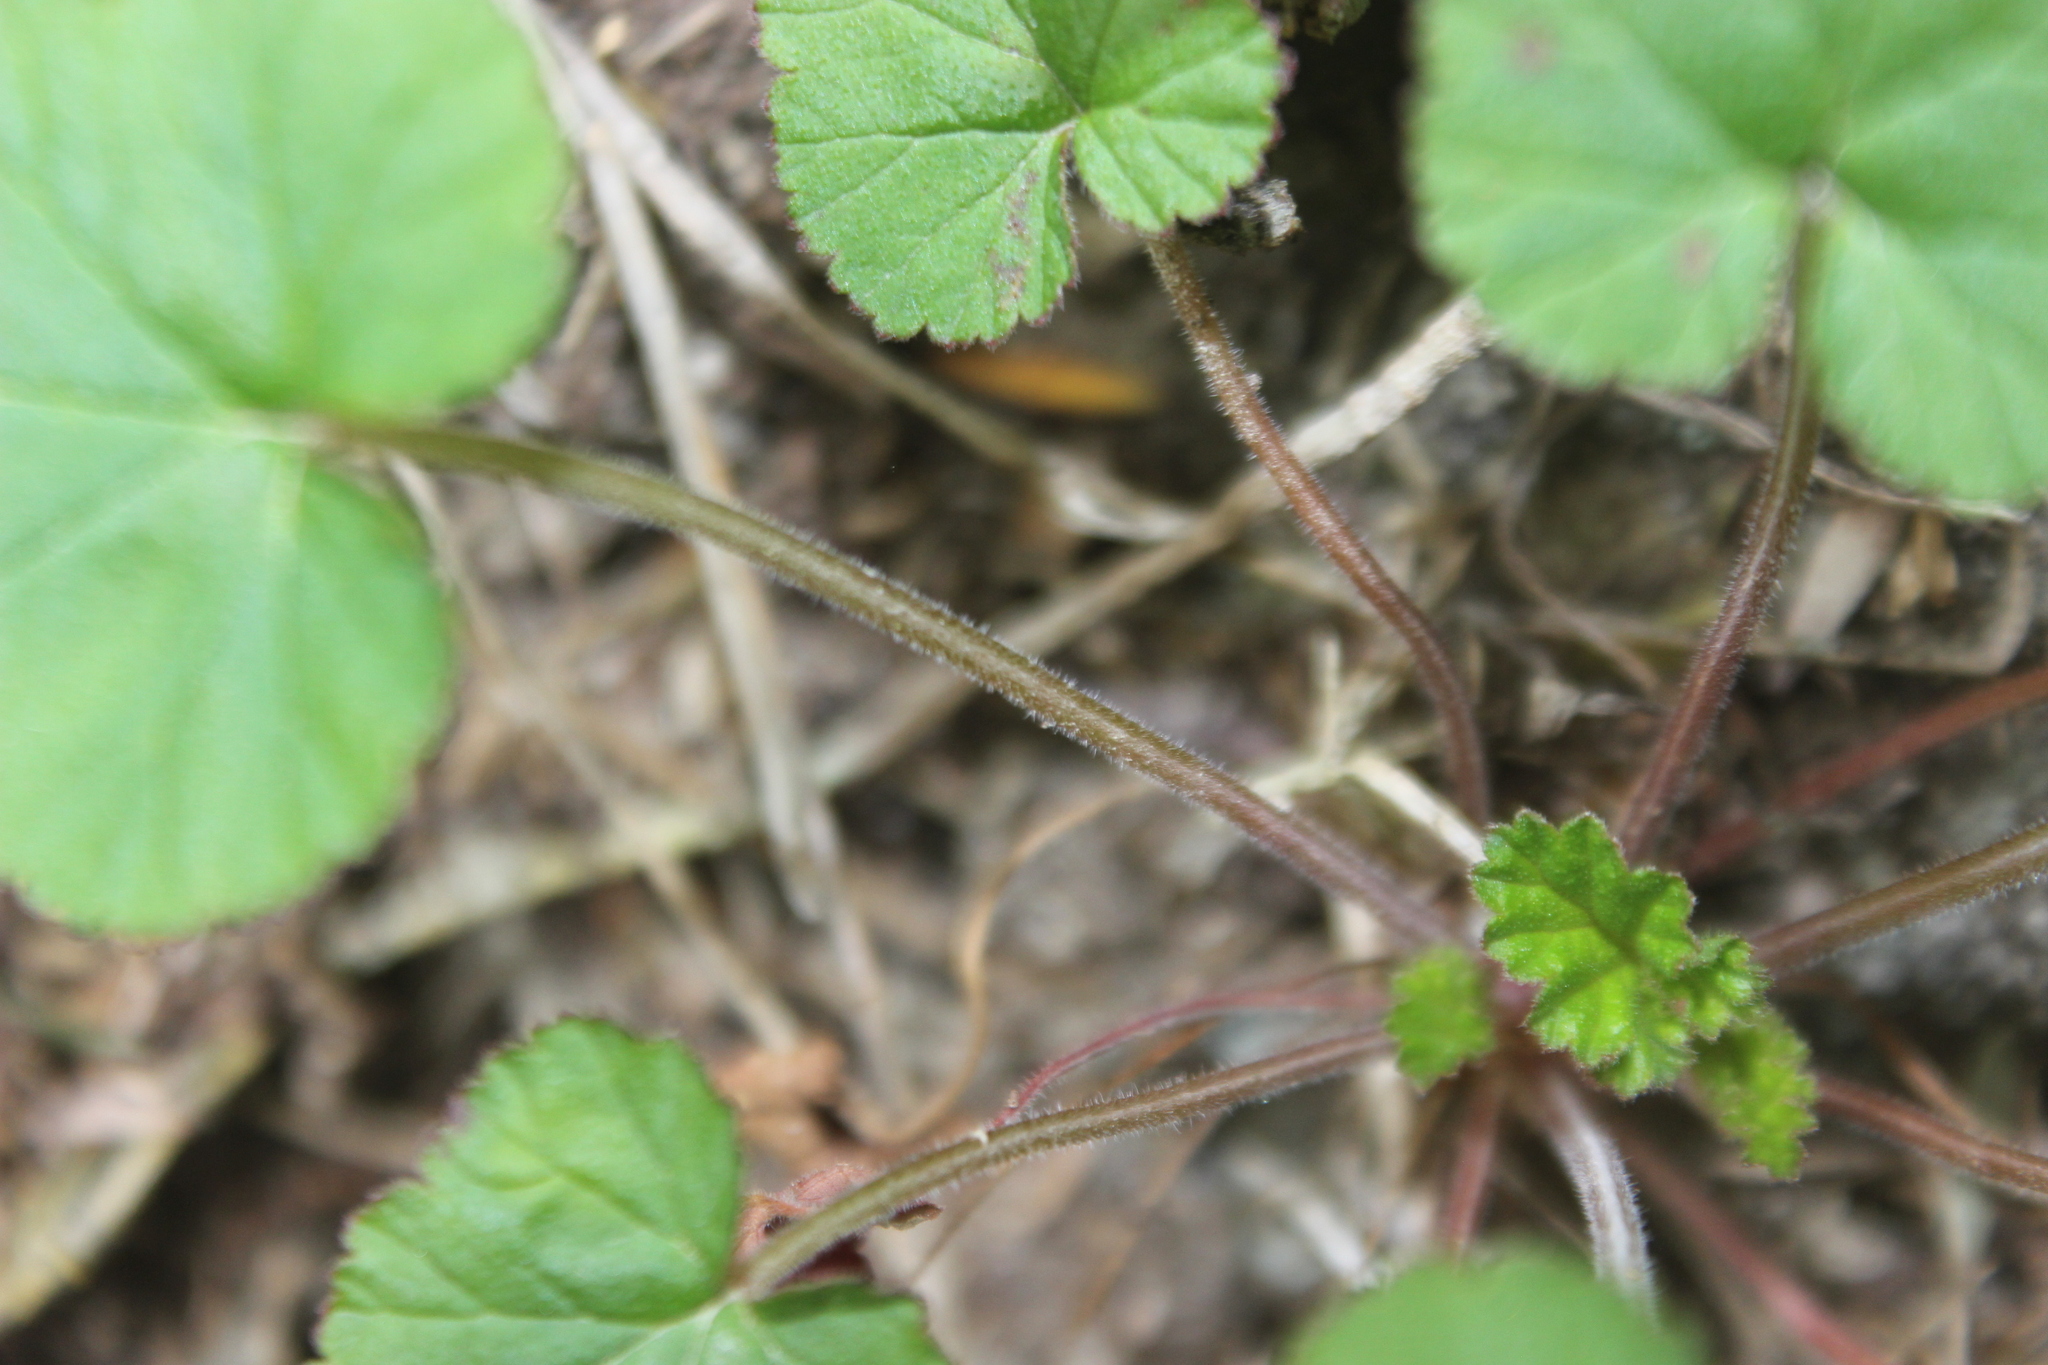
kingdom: Plantae
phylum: Tracheophyta
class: Magnoliopsida
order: Geraniales
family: Geraniaceae
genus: Pelargonium
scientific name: Pelargonium inodorum
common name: Kopata geranium
